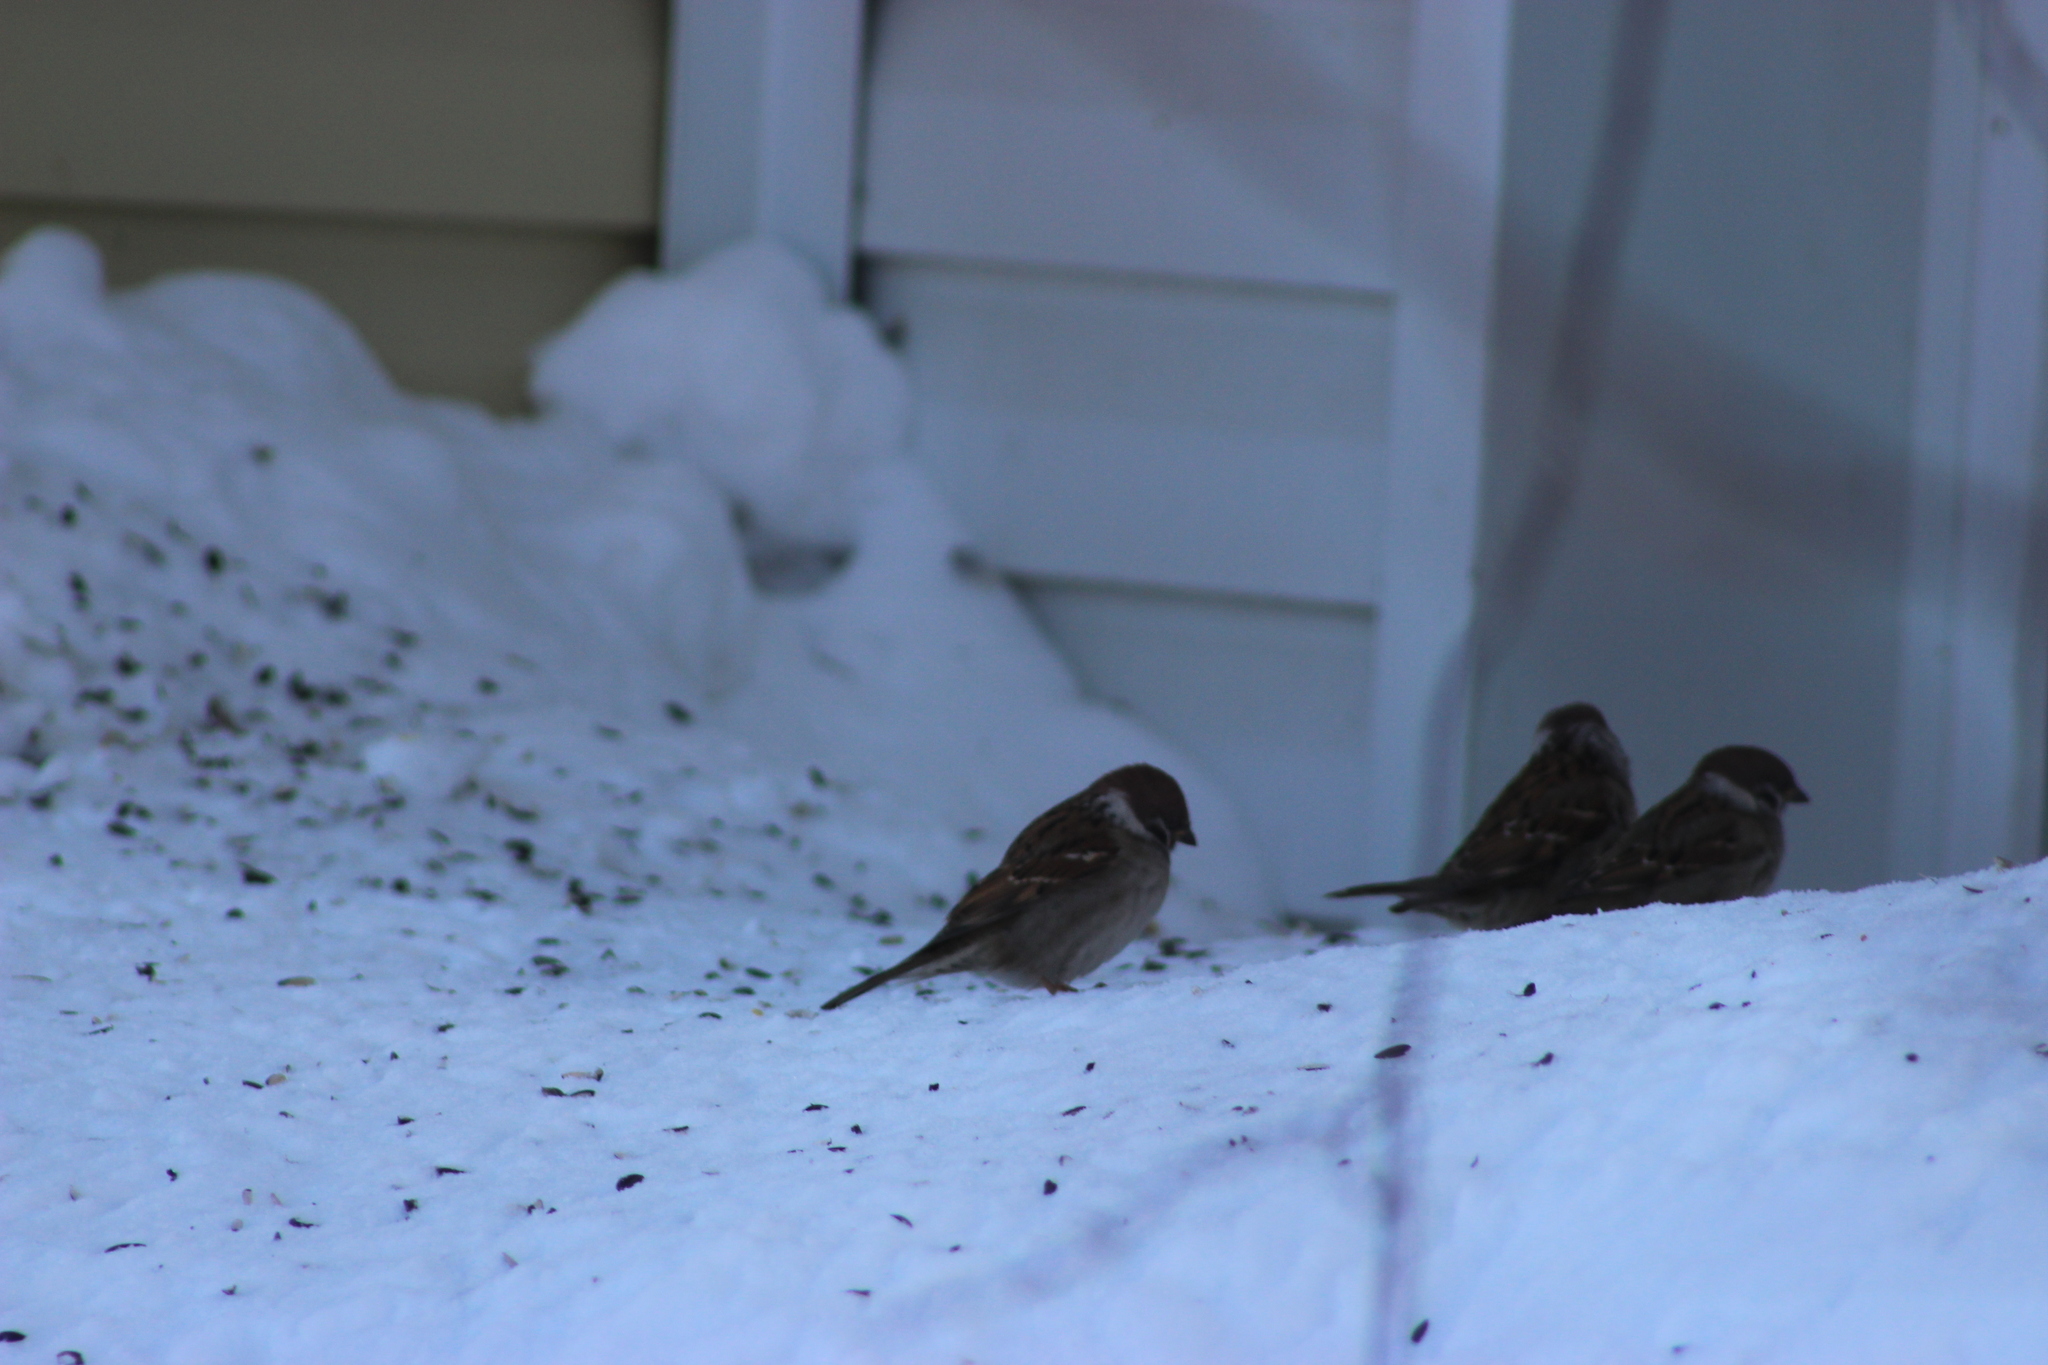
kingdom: Animalia
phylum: Chordata
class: Aves
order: Passeriformes
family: Passeridae
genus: Passer
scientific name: Passer montanus
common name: Eurasian tree sparrow
